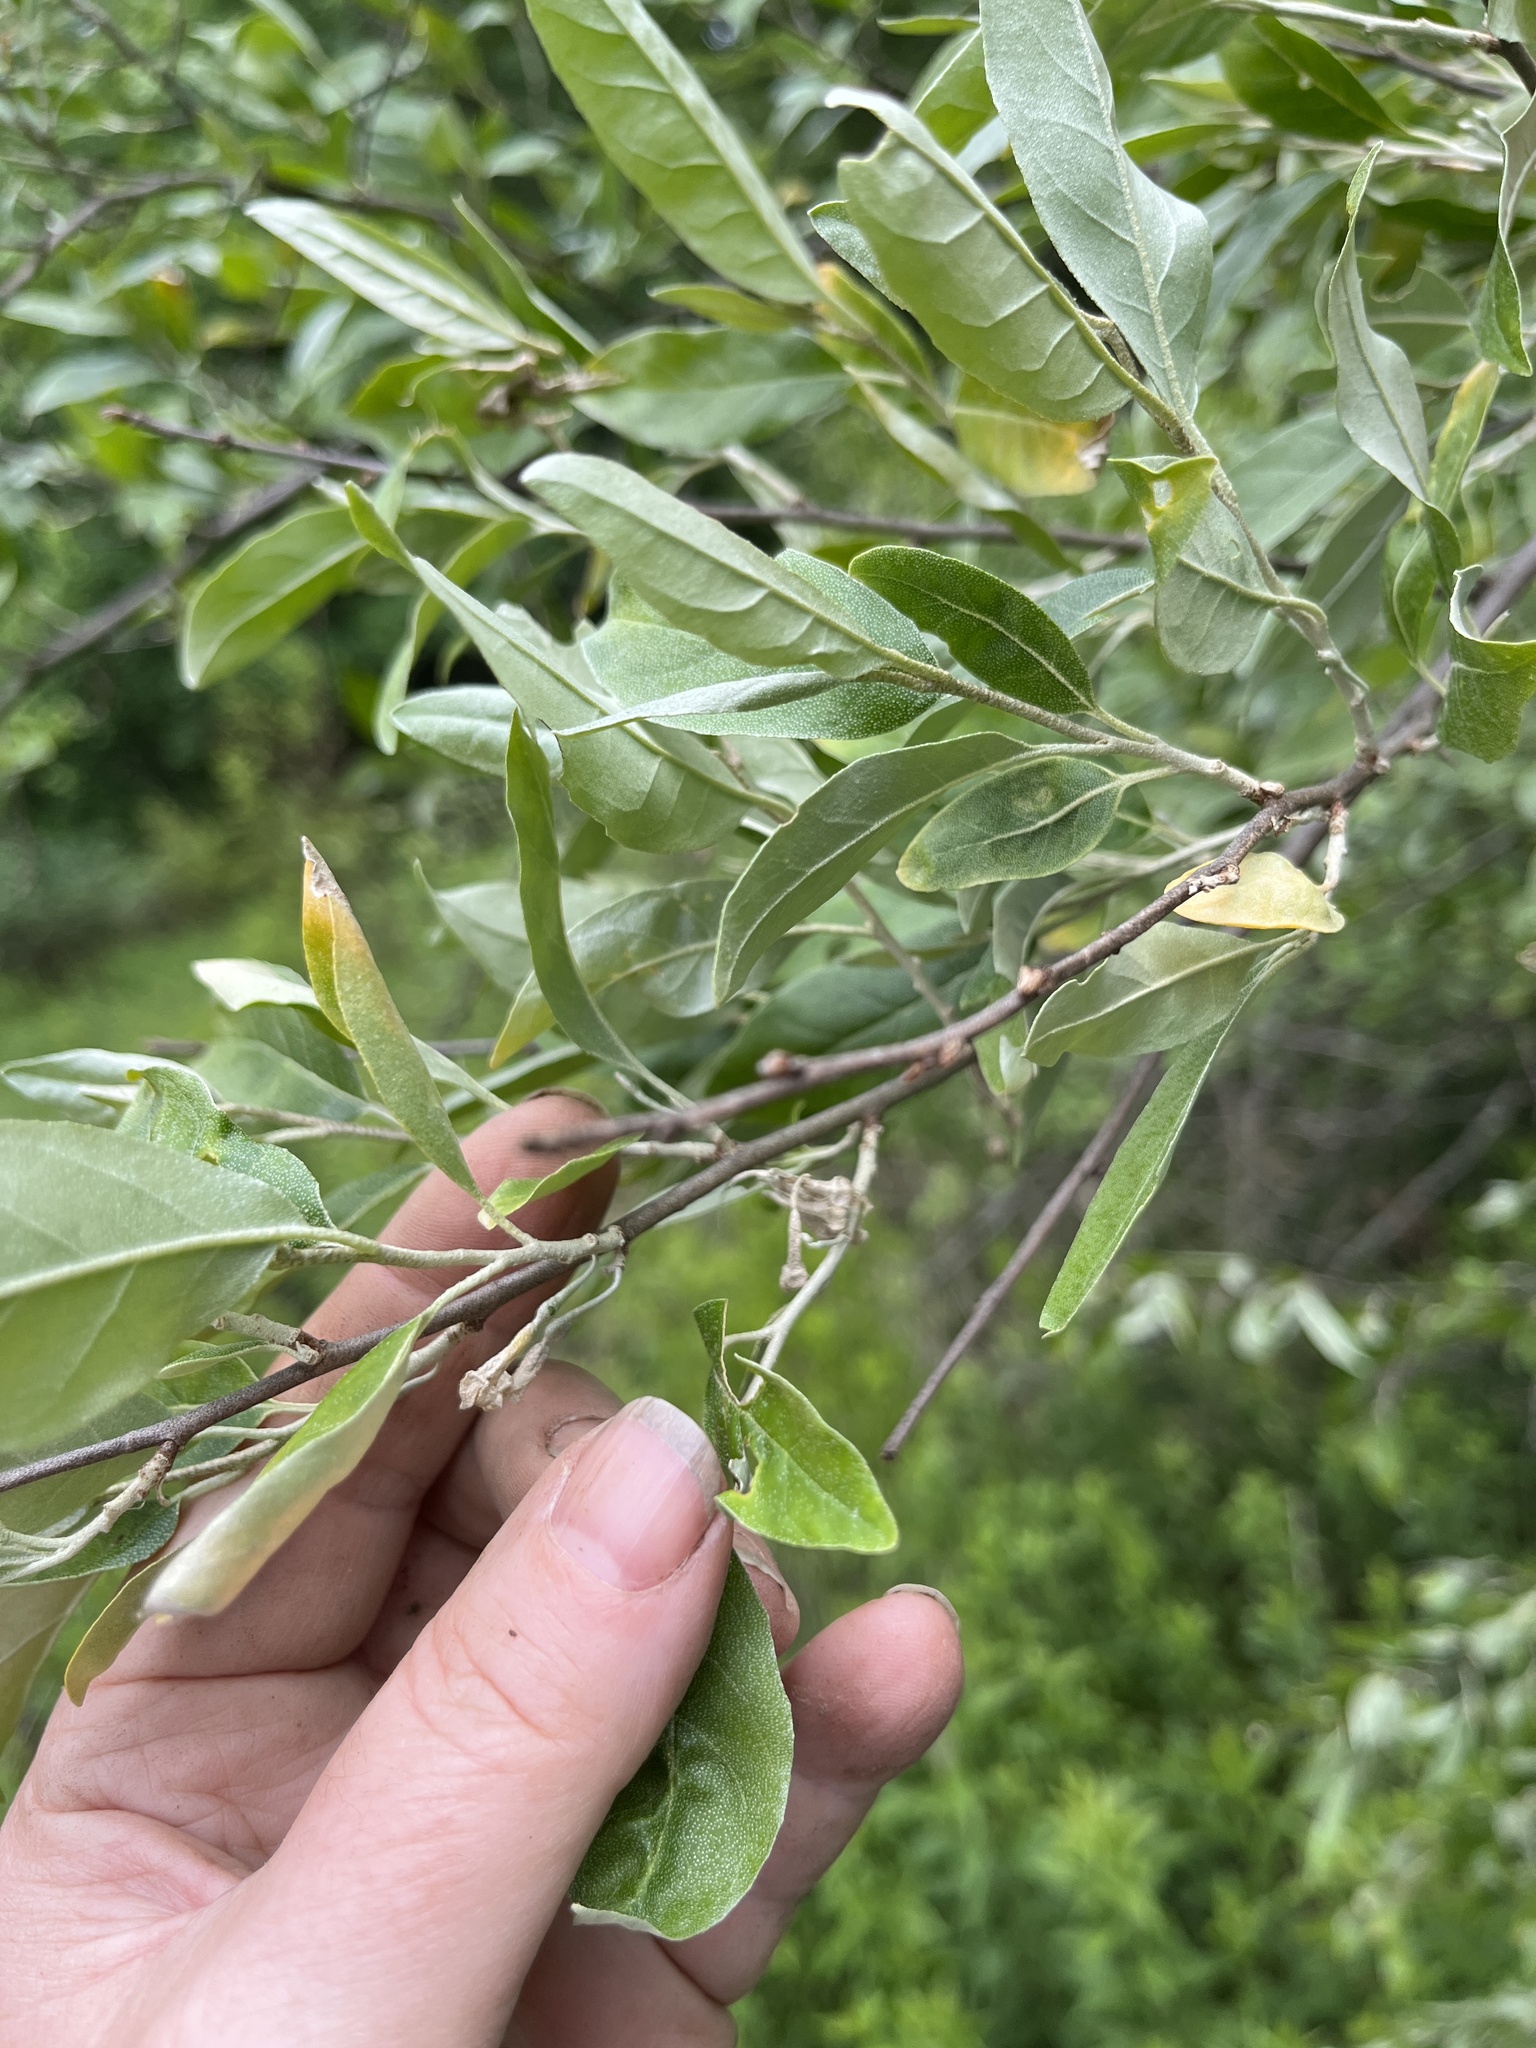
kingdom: Plantae
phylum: Tracheophyta
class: Magnoliopsida
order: Rosales
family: Elaeagnaceae
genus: Elaeagnus
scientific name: Elaeagnus umbellata
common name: Autumn olive
